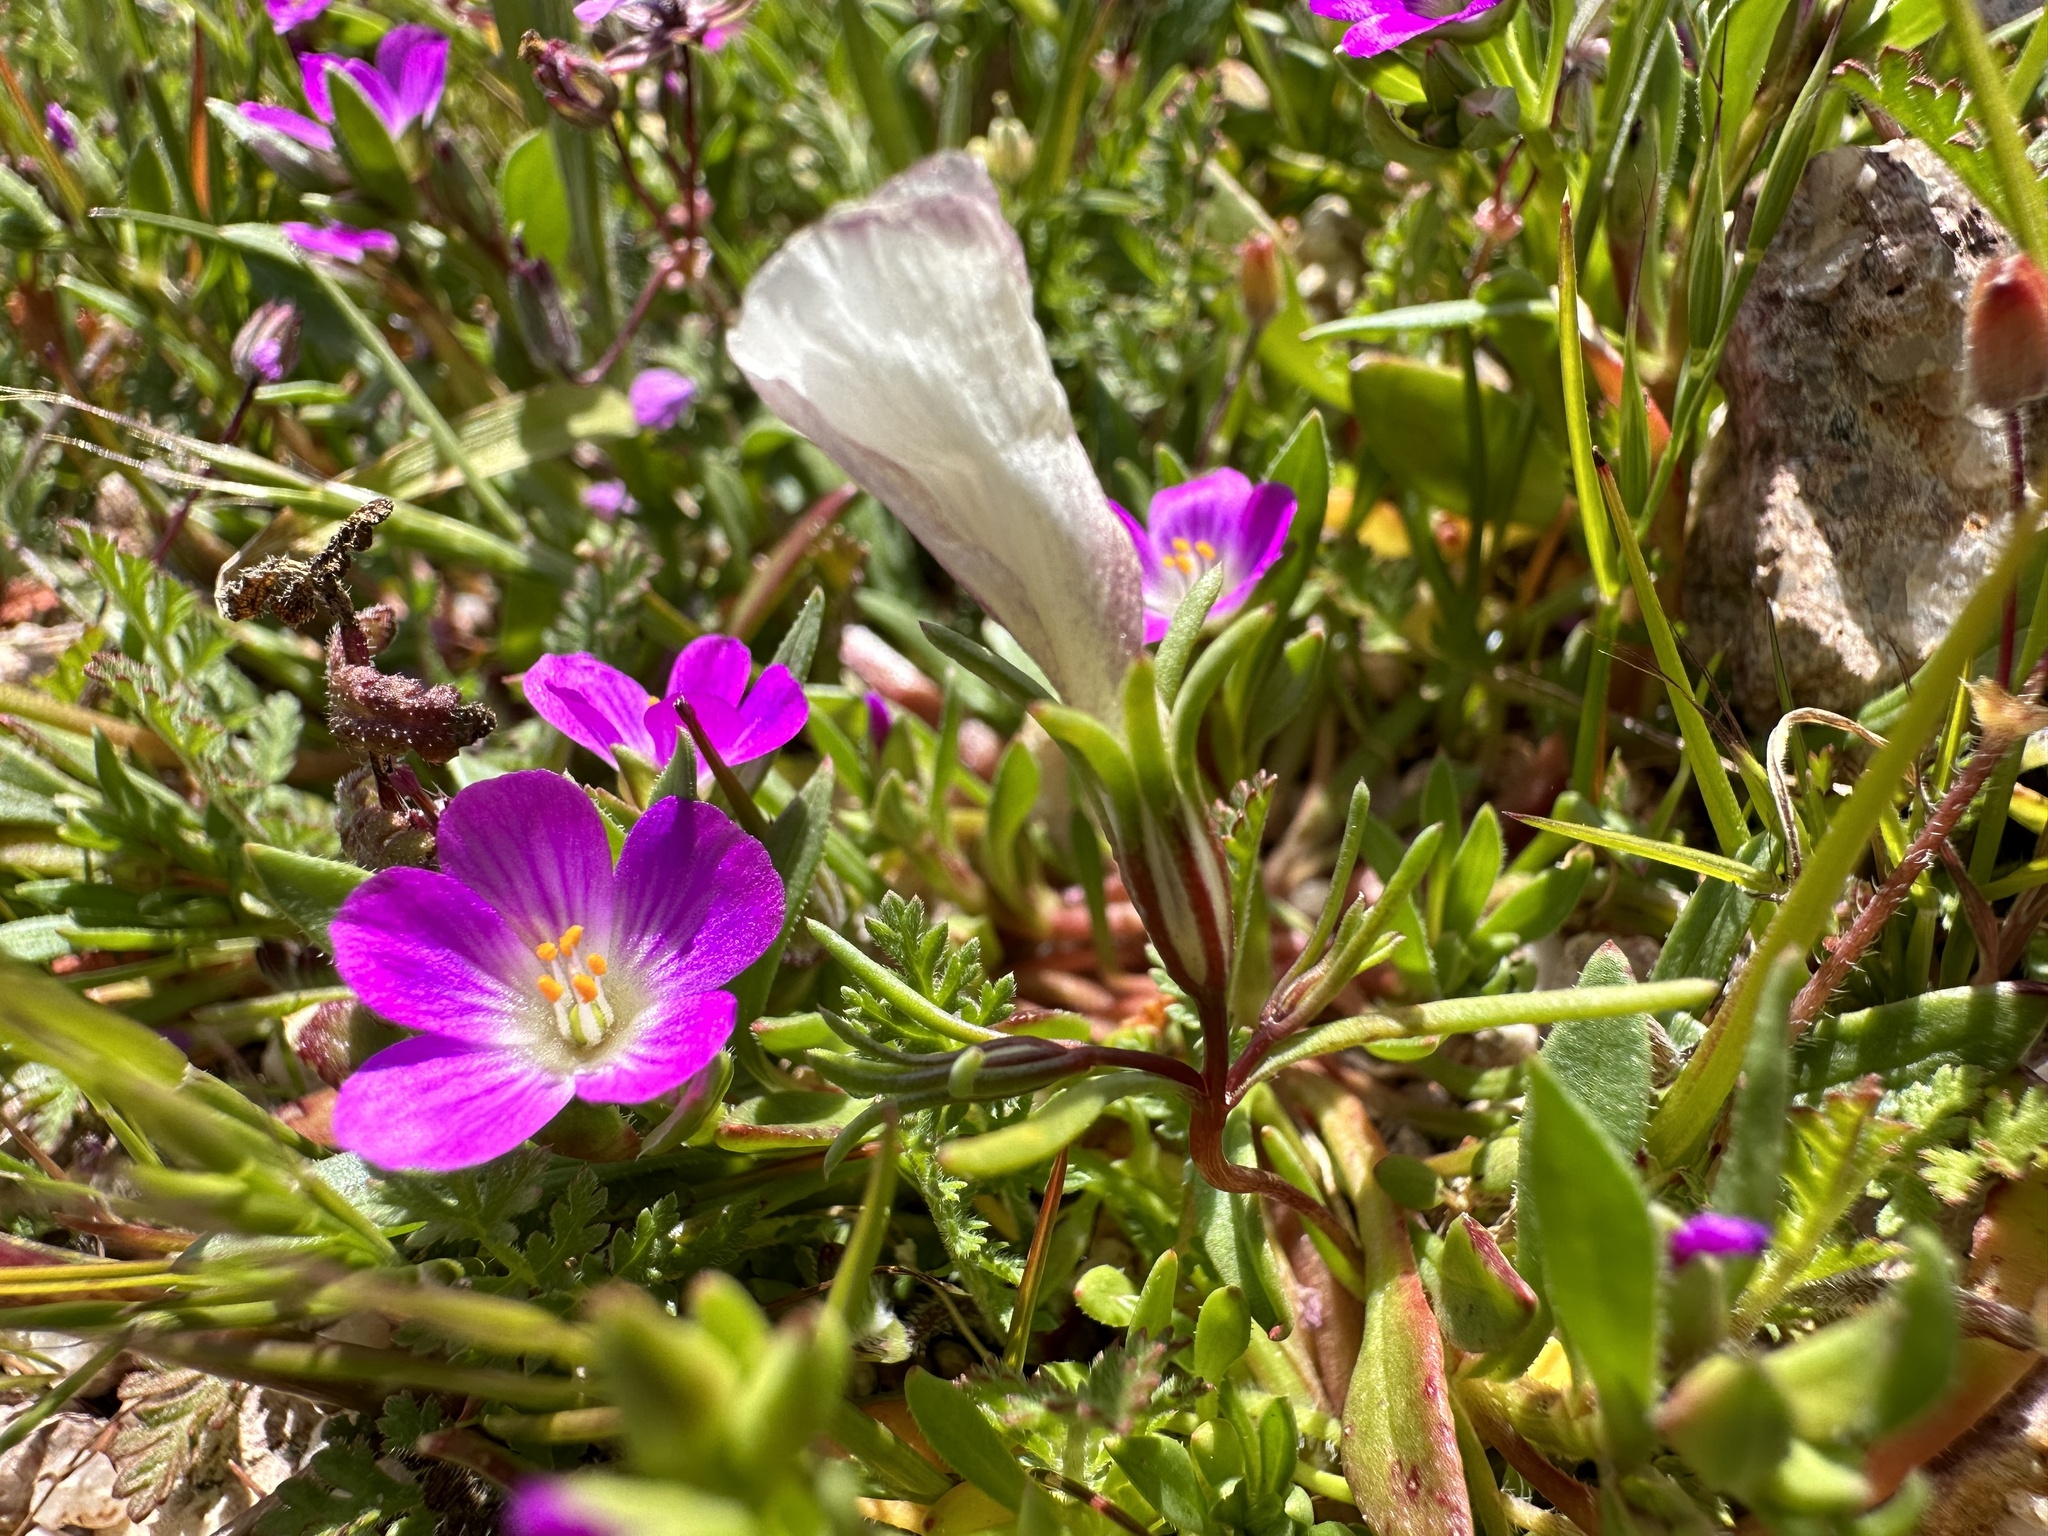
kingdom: Plantae
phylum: Tracheophyta
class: Magnoliopsida
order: Ericales
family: Polemoniaceae
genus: Linanthus
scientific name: Linanthus dichotomus
